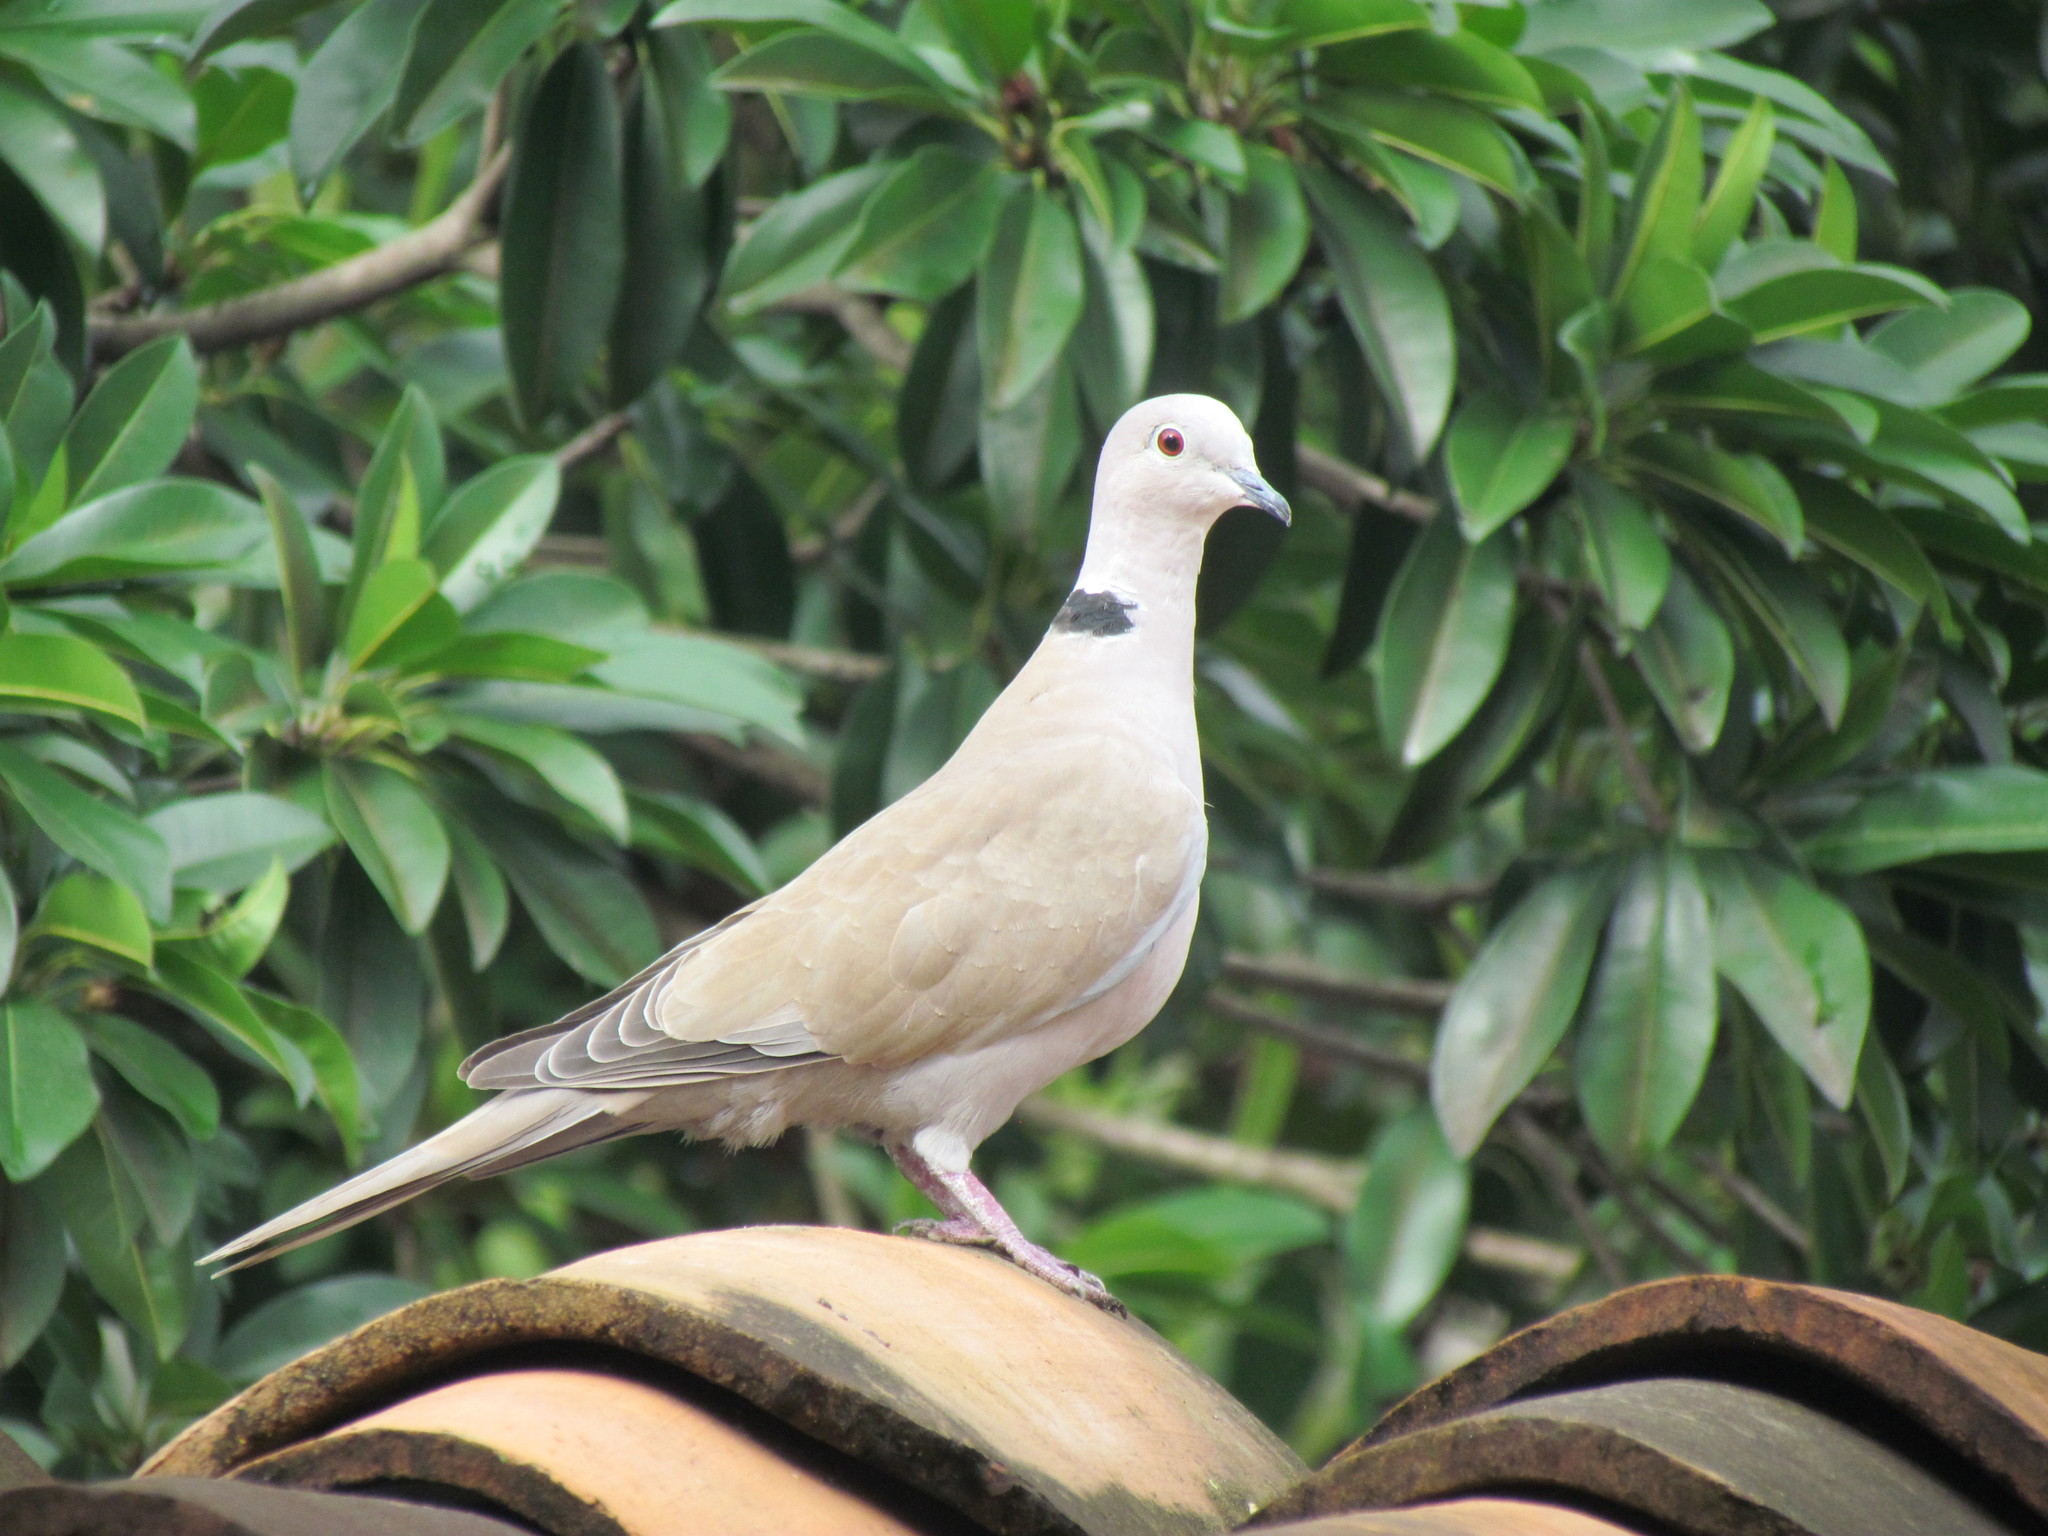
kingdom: Animalia
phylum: Chordata
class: Aves
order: Columbiformes
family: Columbidae
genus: Streptopelia
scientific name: Streptopelia decaocto
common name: Eurasian collared dove
